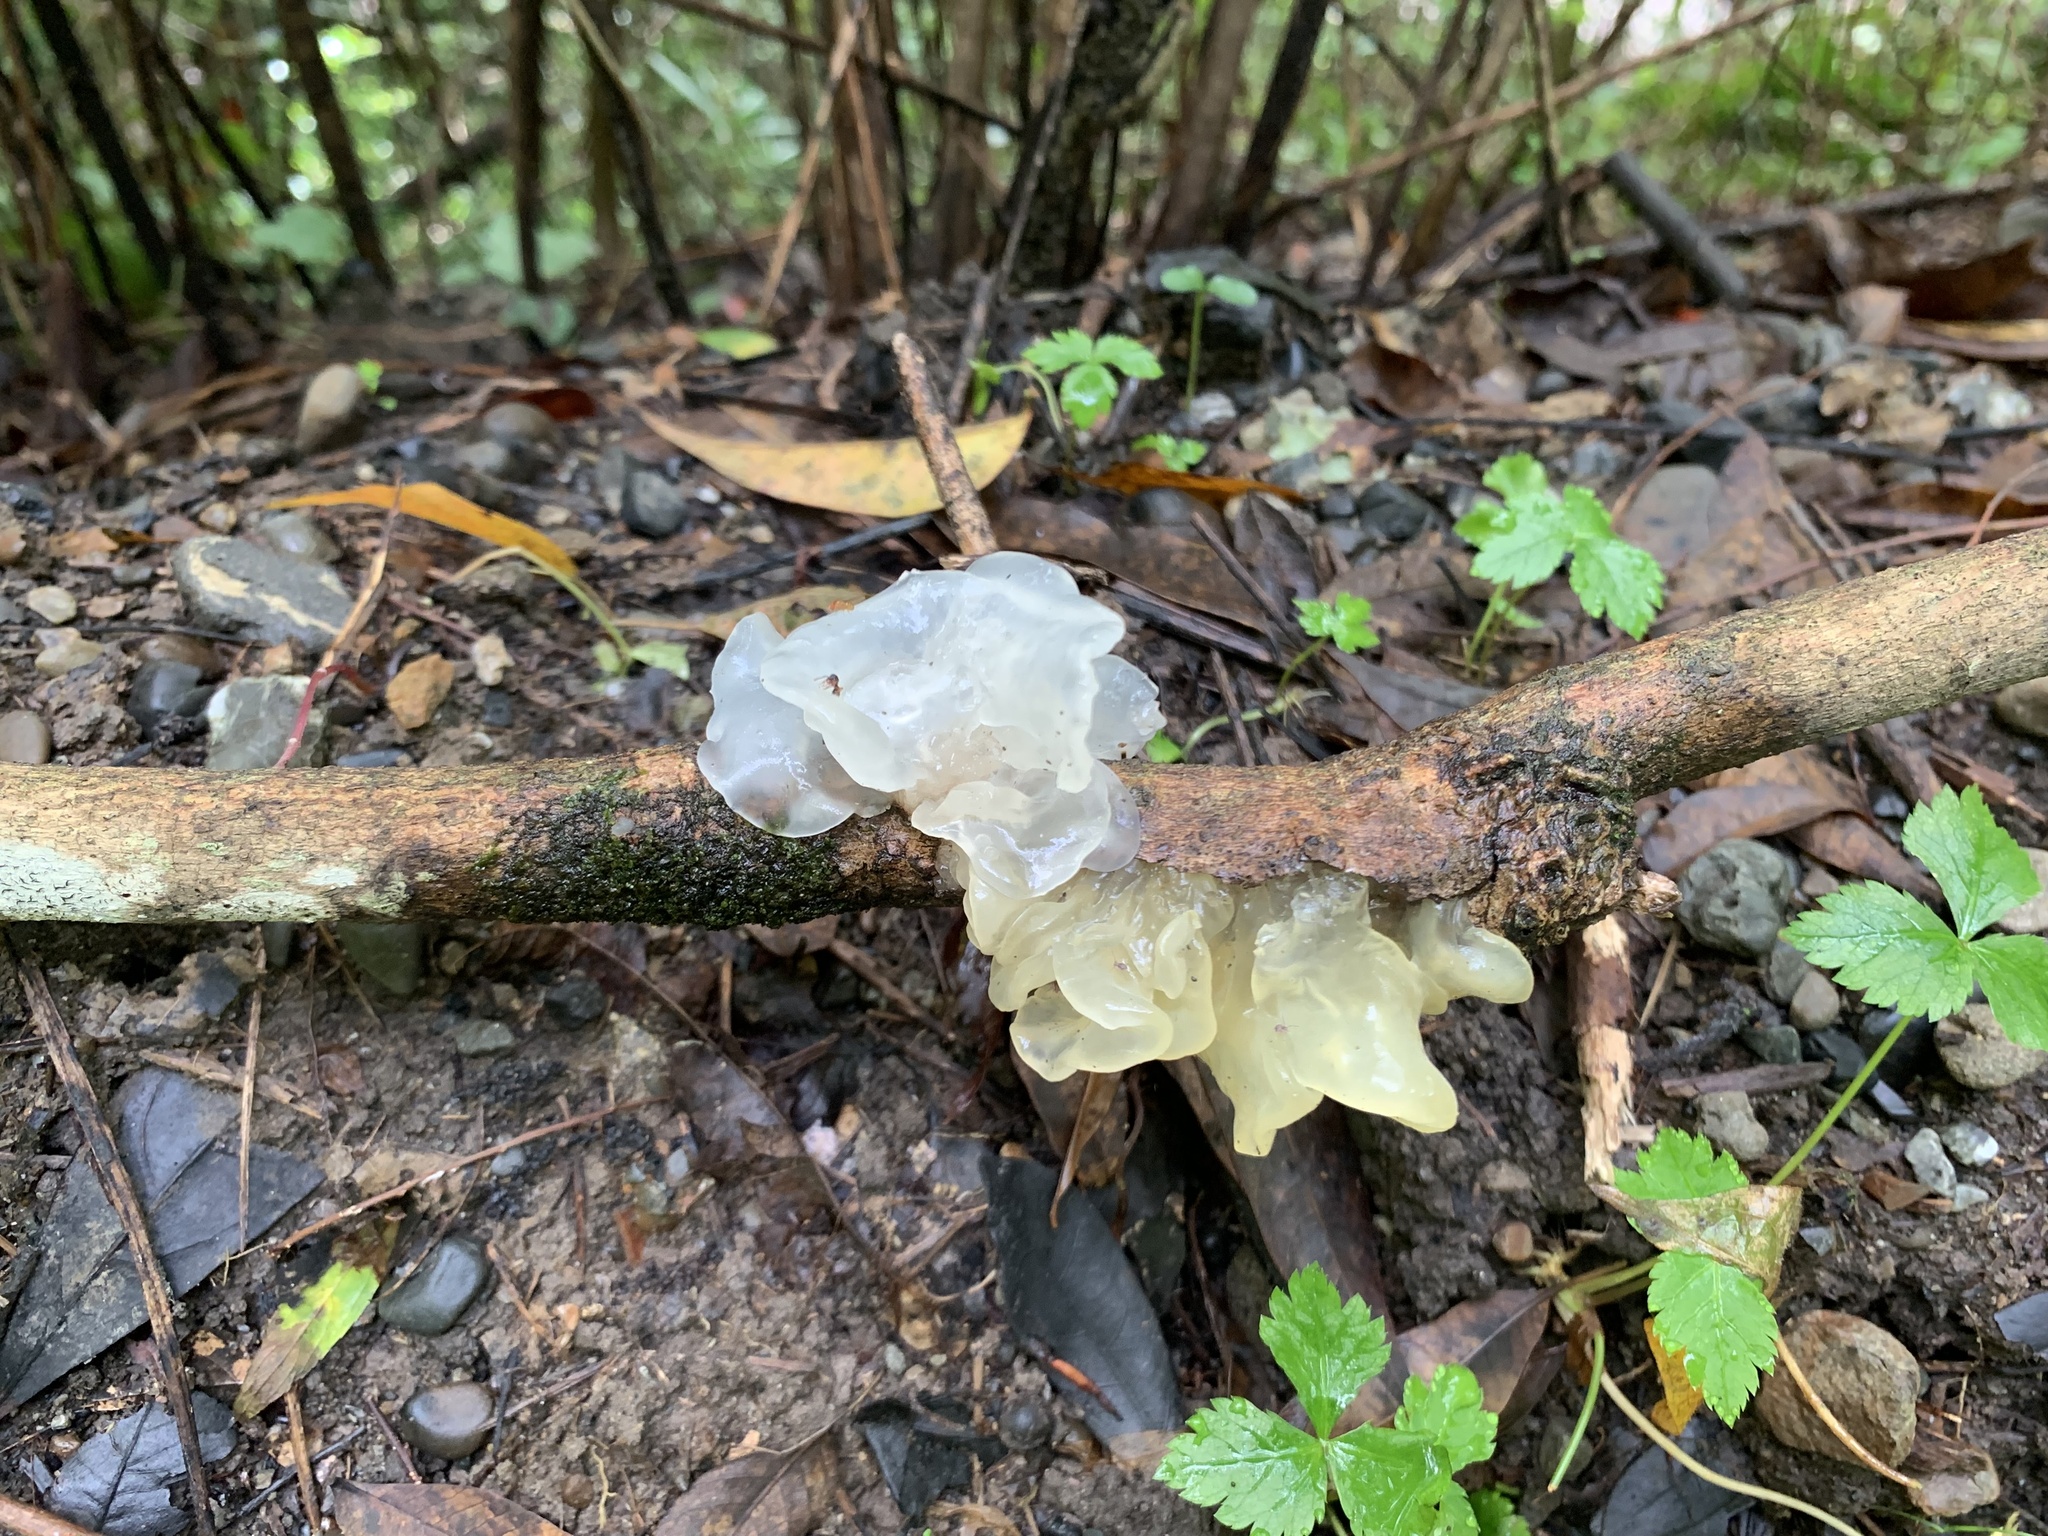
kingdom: Fungi
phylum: Basidiomycota
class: Tremellomycetes
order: Tremellales
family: Tremellaceae
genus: Tremella
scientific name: Tremella fuciformis
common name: Snow fungus
